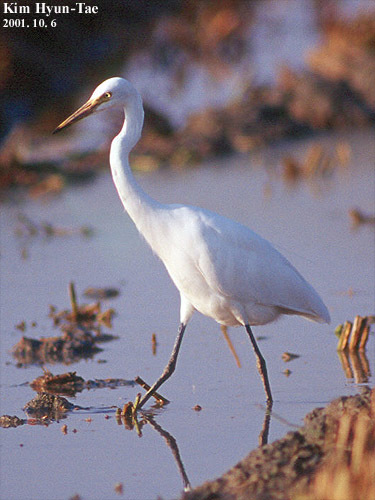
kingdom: Animalia
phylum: Chordata
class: Aves
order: Pelecaniformes
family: Ardeidae
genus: Egretta
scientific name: Egretta intermedia
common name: Intermediate egret
